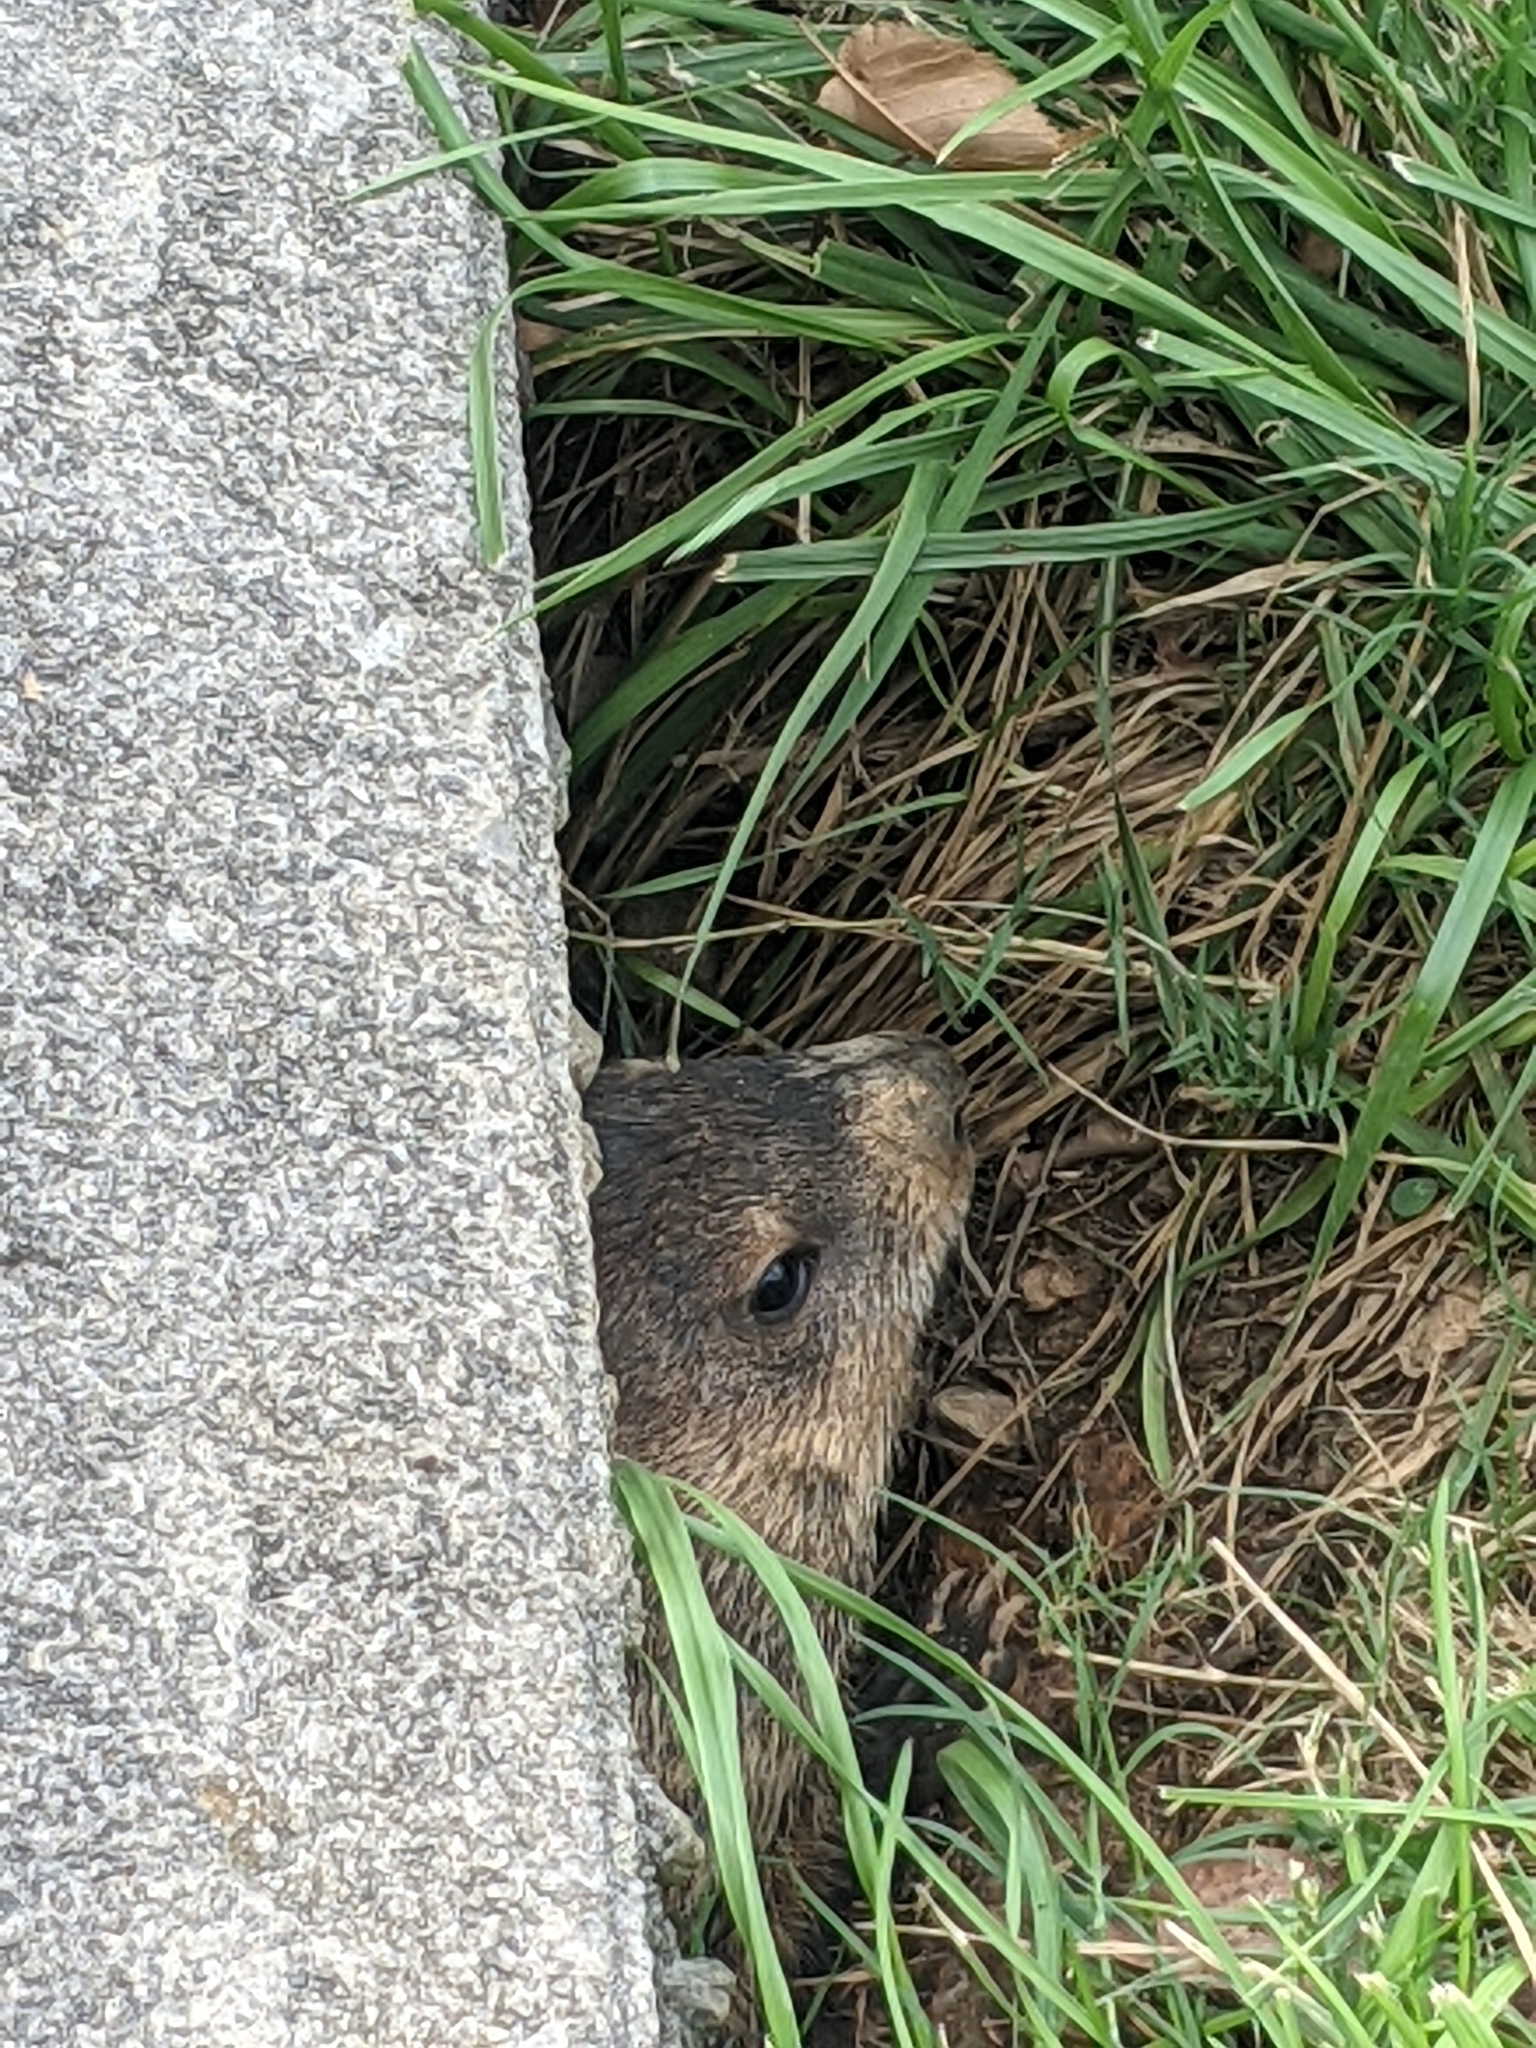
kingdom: Animalia
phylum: Chordata
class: Mammalia
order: Rodentia
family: Sciuridae
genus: Marmota
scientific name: Marmota monax
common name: Groundhog
